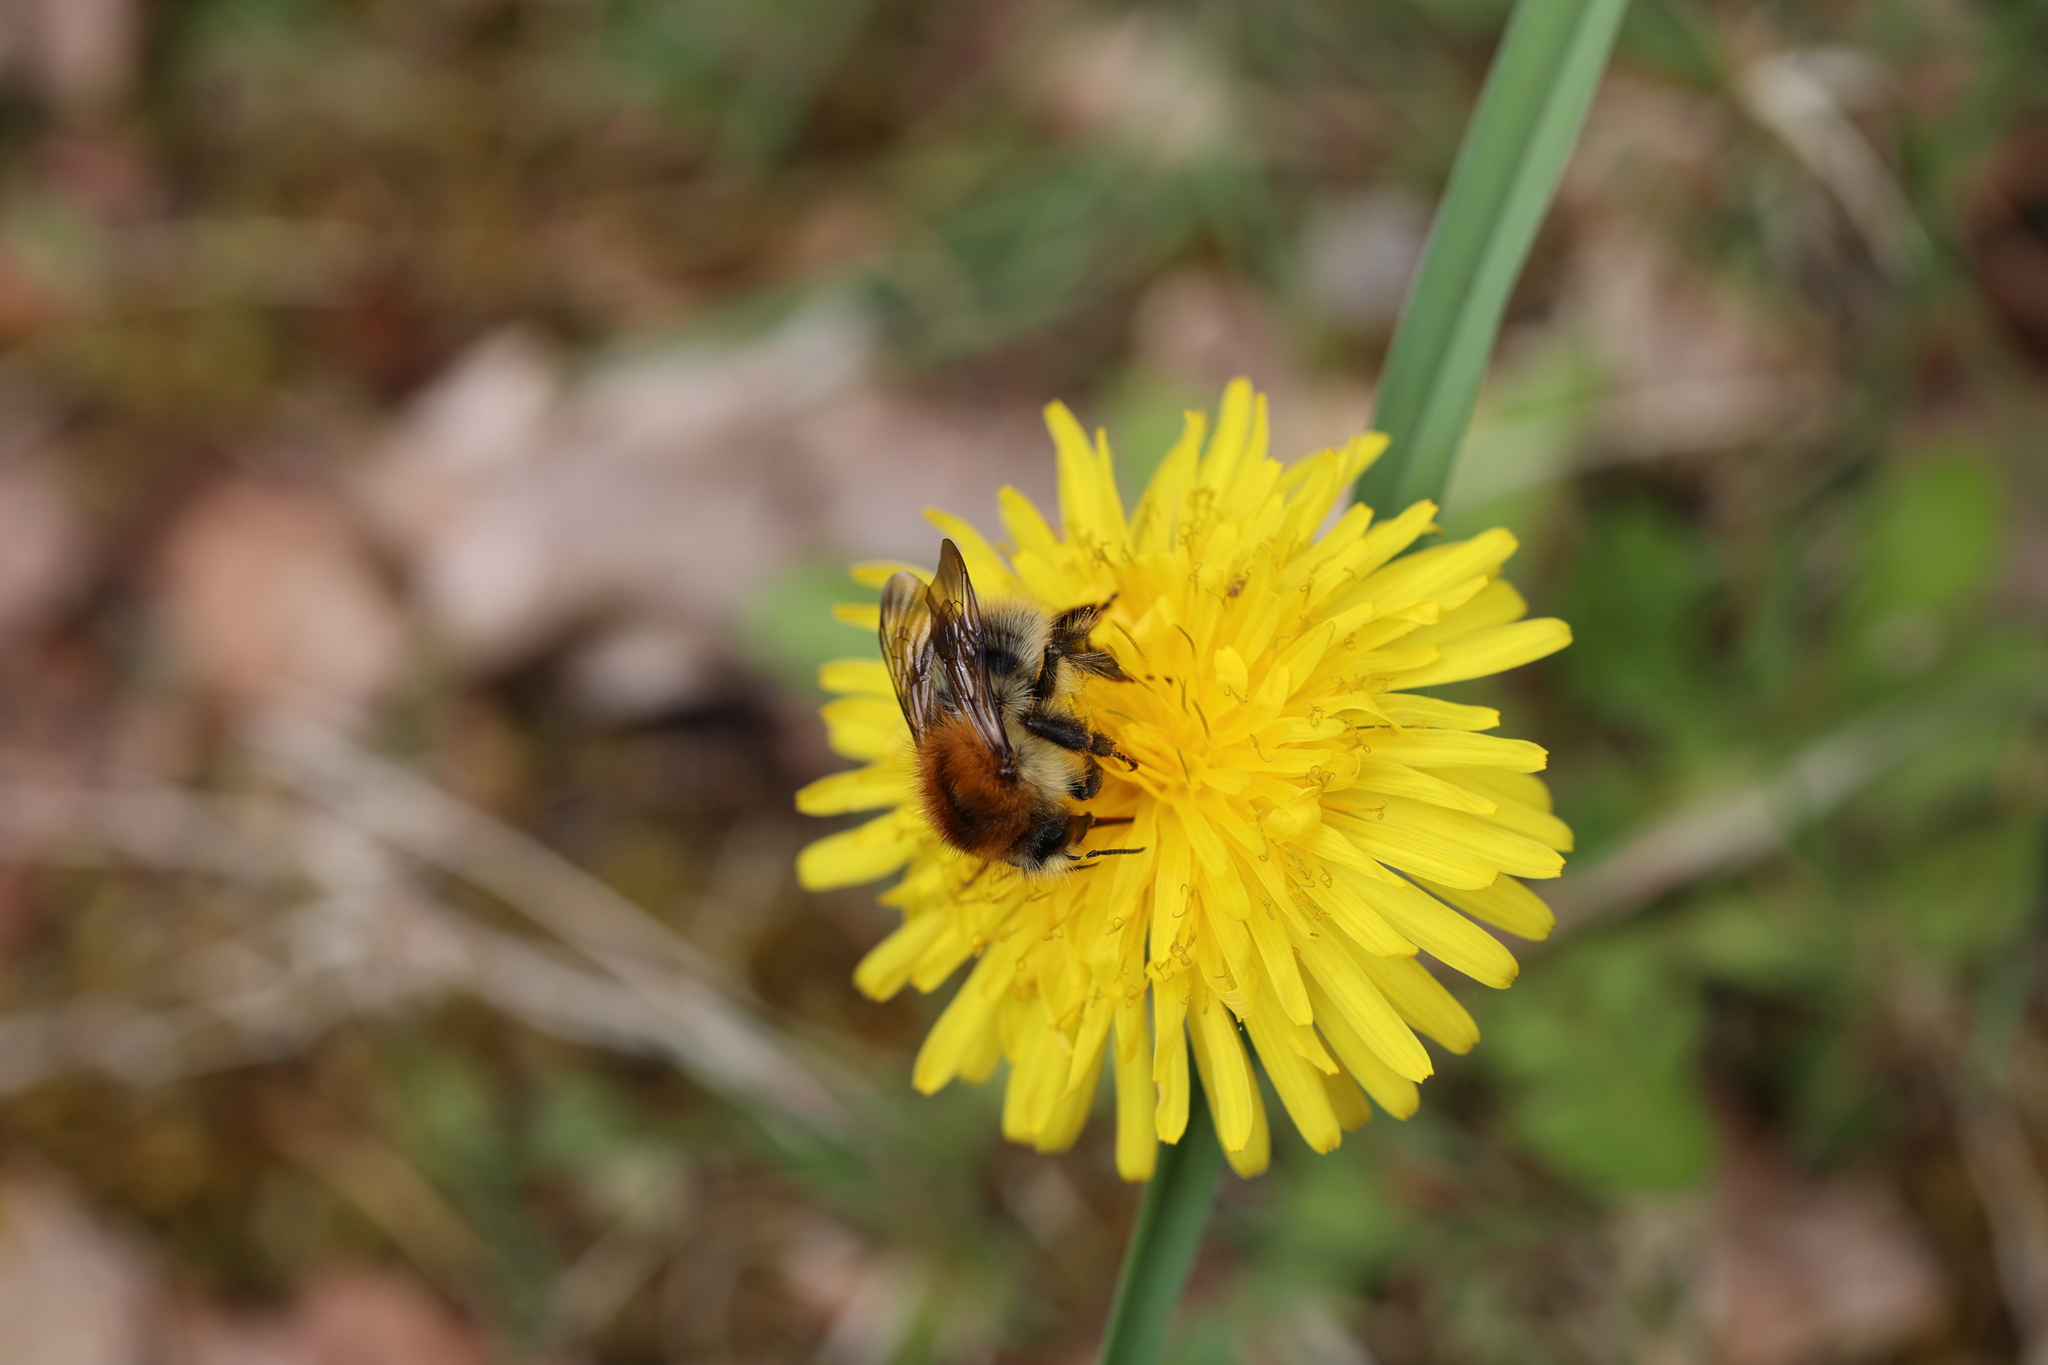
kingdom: Animalia
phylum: Arthropoda
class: Insecta
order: Hymenoptera
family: Apidae
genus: Bombus
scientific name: Bombus pascuorum
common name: Common carder bee
